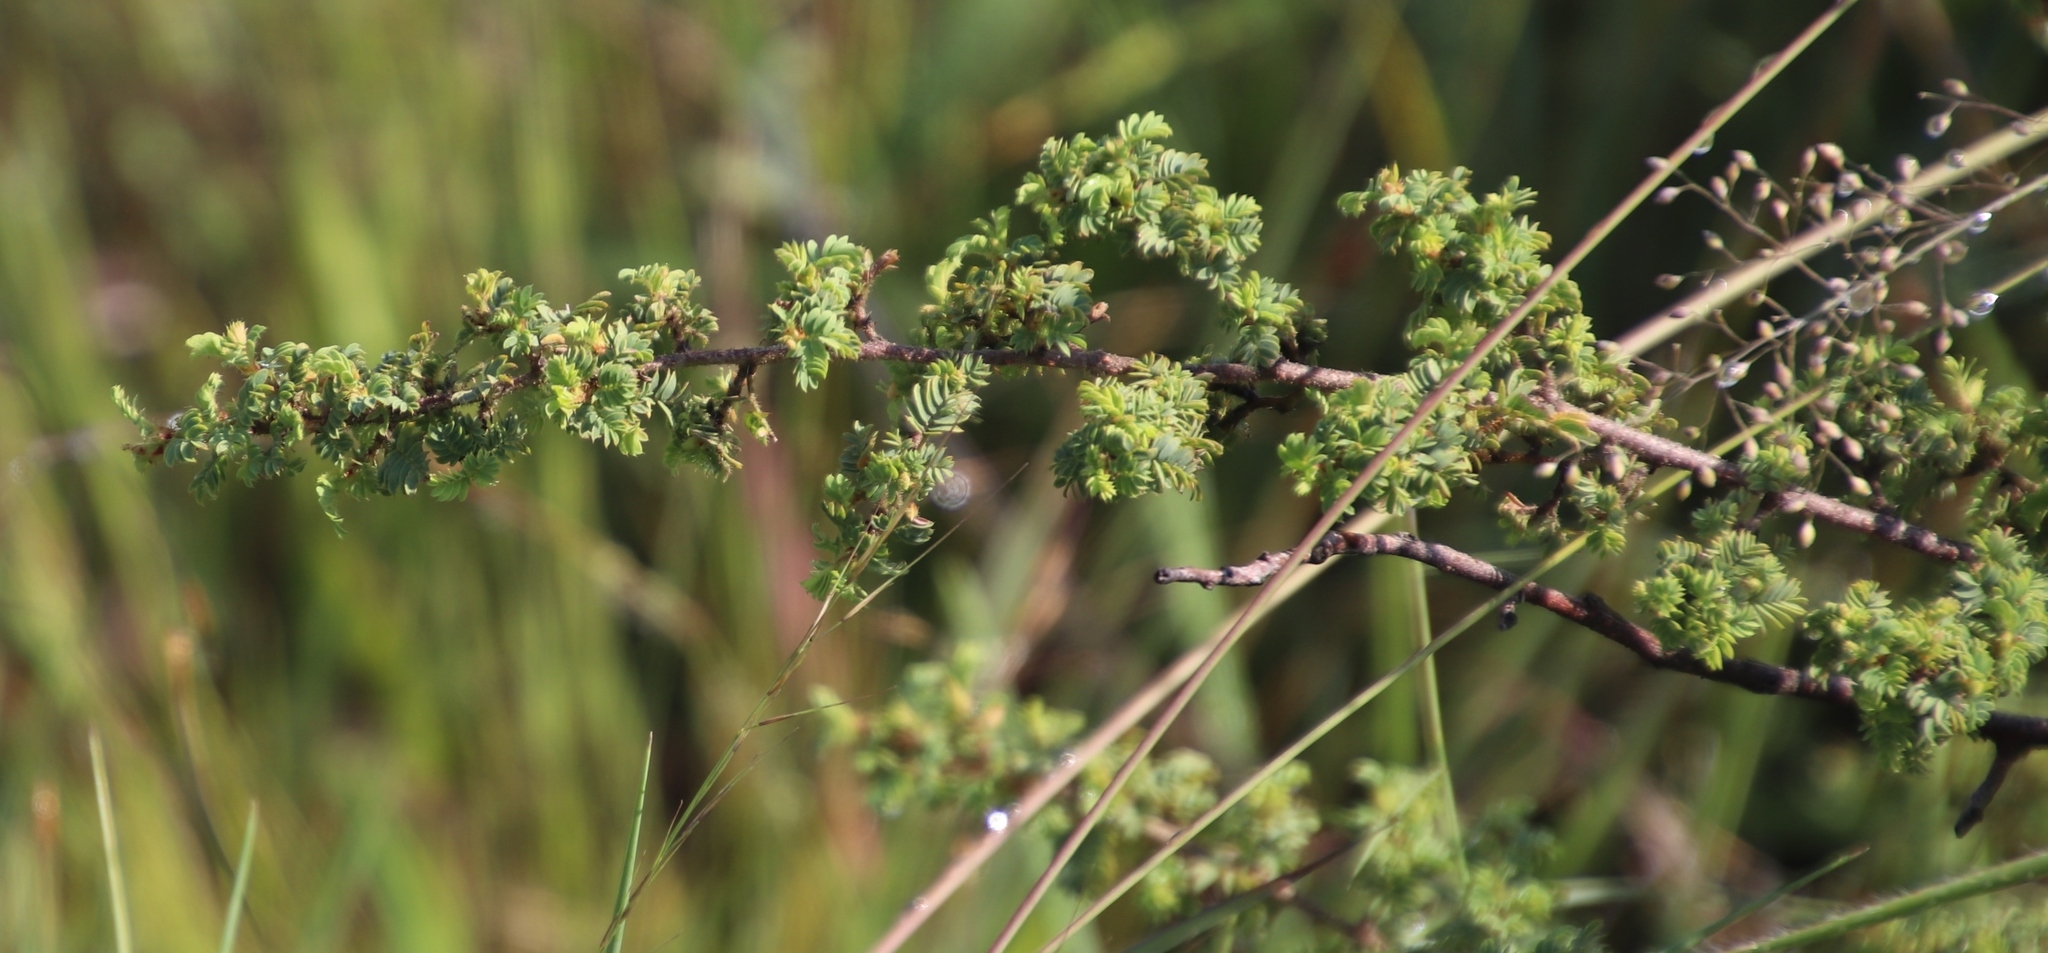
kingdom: Plantae
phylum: Tracheophyta
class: Magnoliopsida
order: Fabales
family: Fabaceae
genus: Kotschya
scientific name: Kotschya parvifolia
